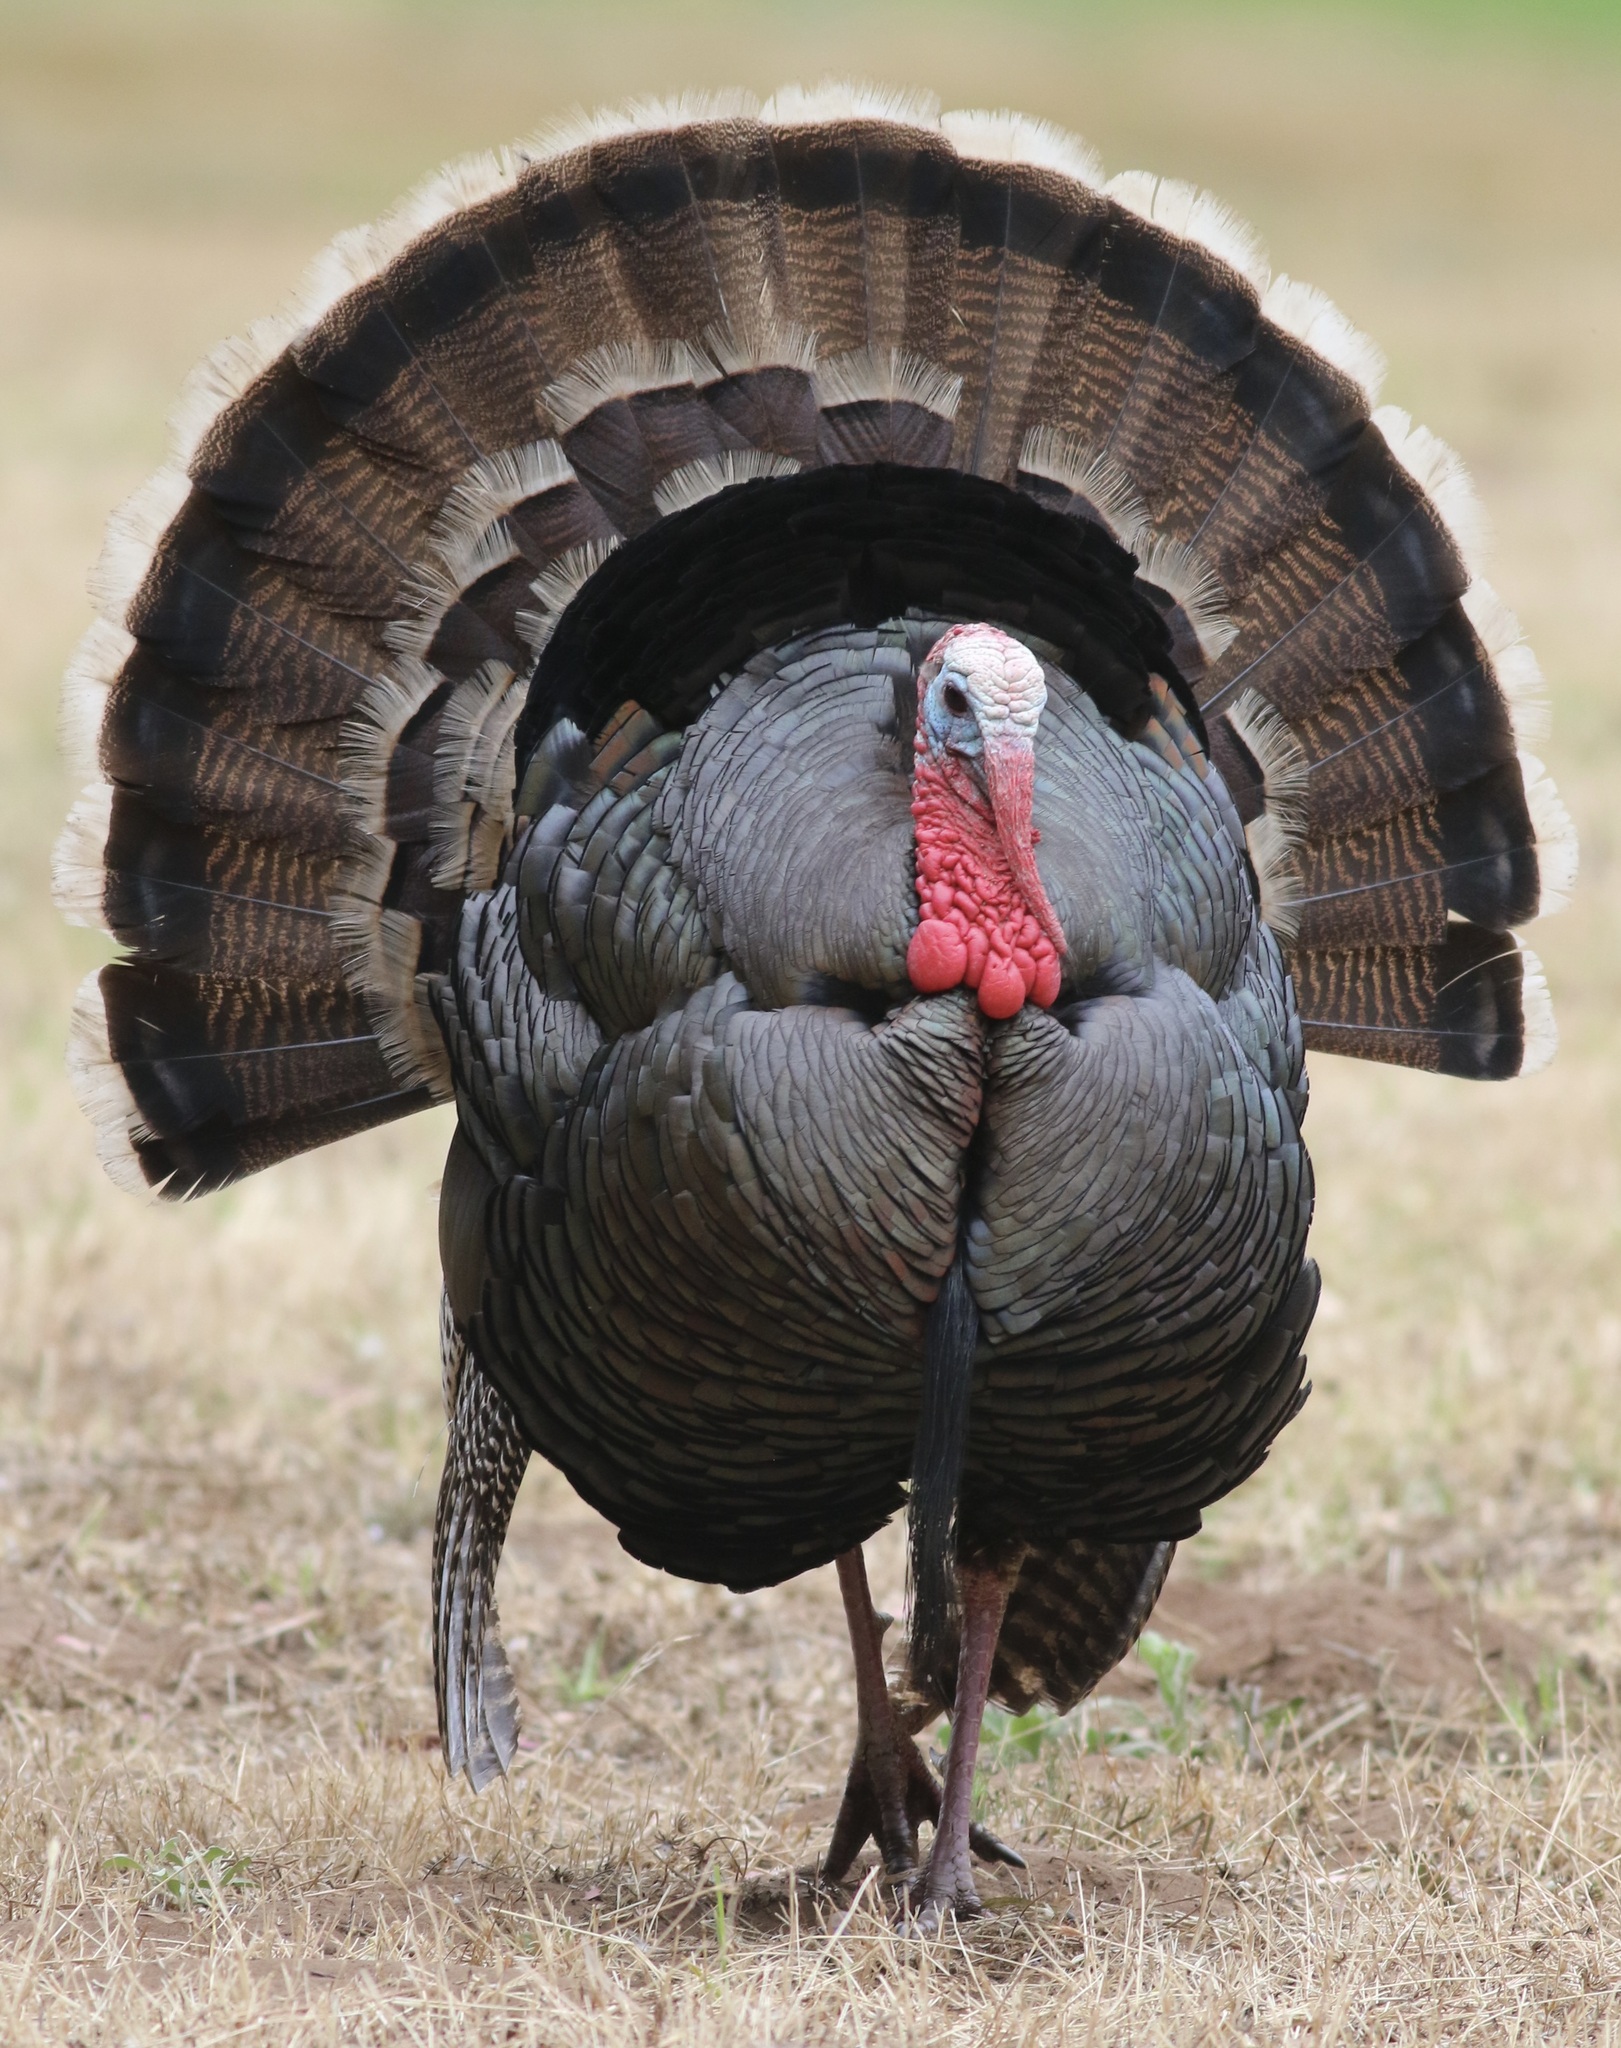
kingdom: Animalia
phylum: Chordata
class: Aves
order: Galliformes
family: Phasianidae
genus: Meleagris
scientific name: Meleagris gallopavo
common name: Wild turkey
